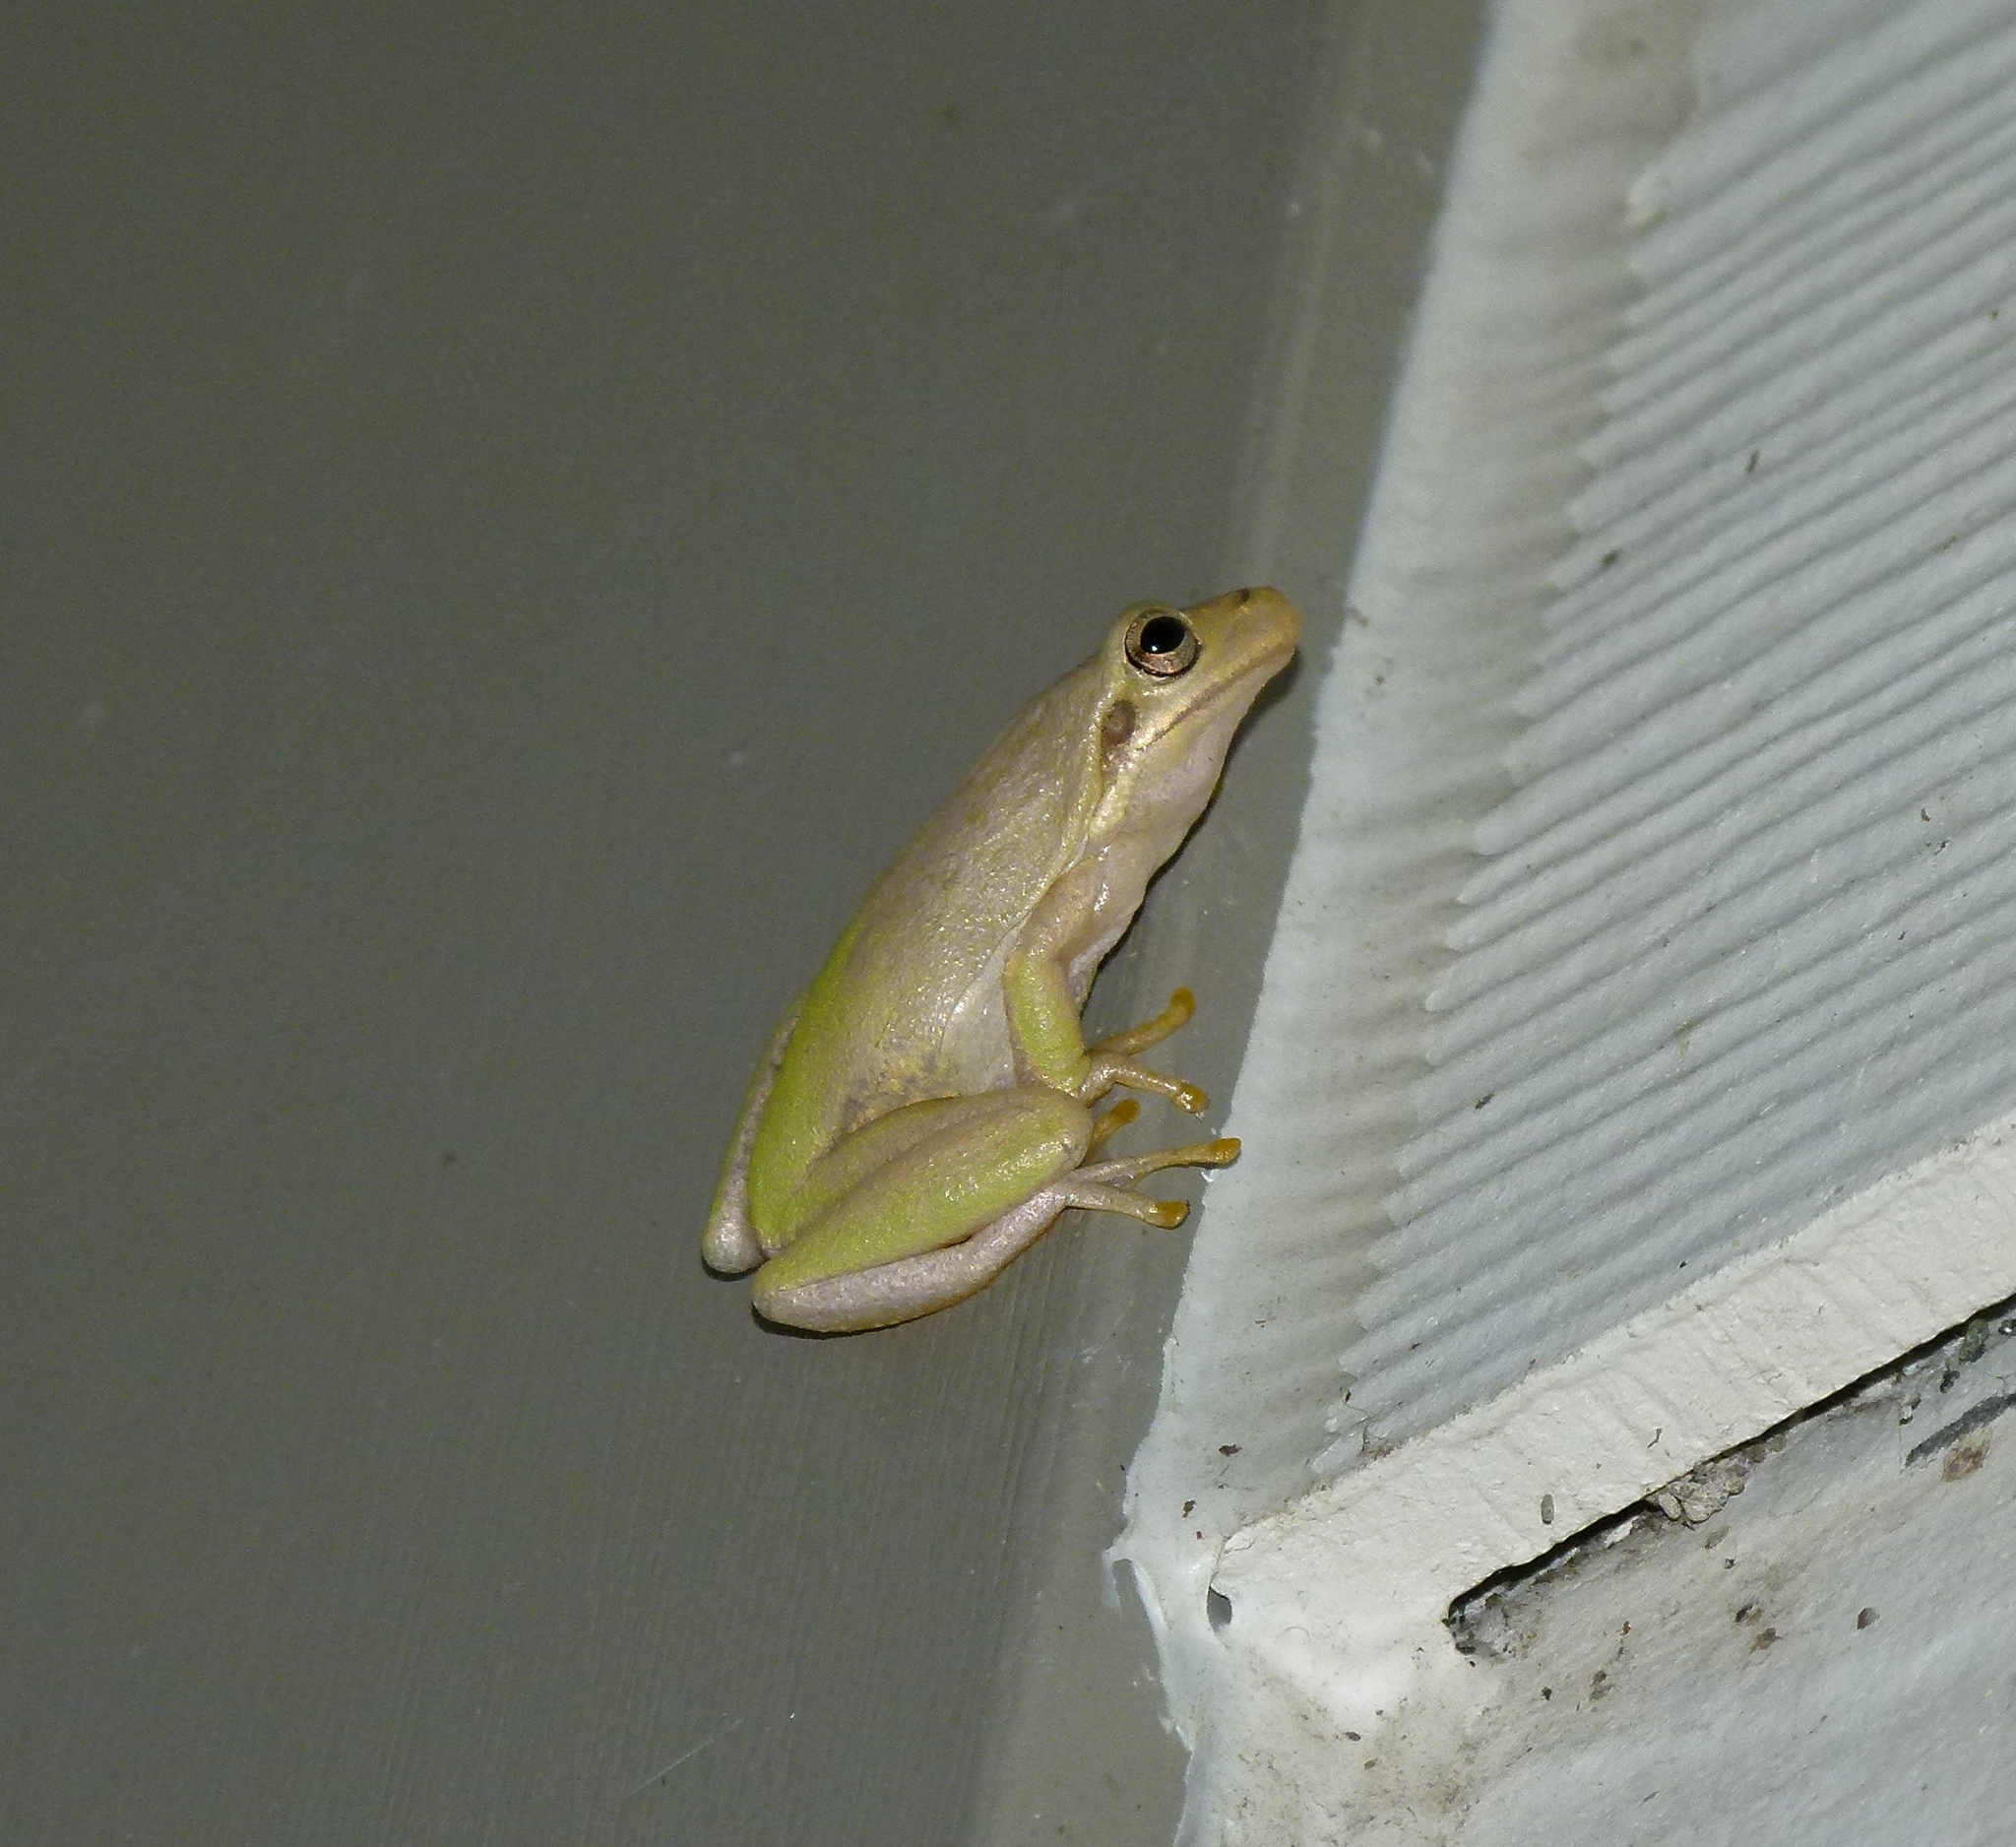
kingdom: Animalia
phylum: Chordata
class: Amphibia
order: Anura
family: Hylidae
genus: Dryophytes
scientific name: Dryophytes squirellus
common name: Squirrel treefrog
